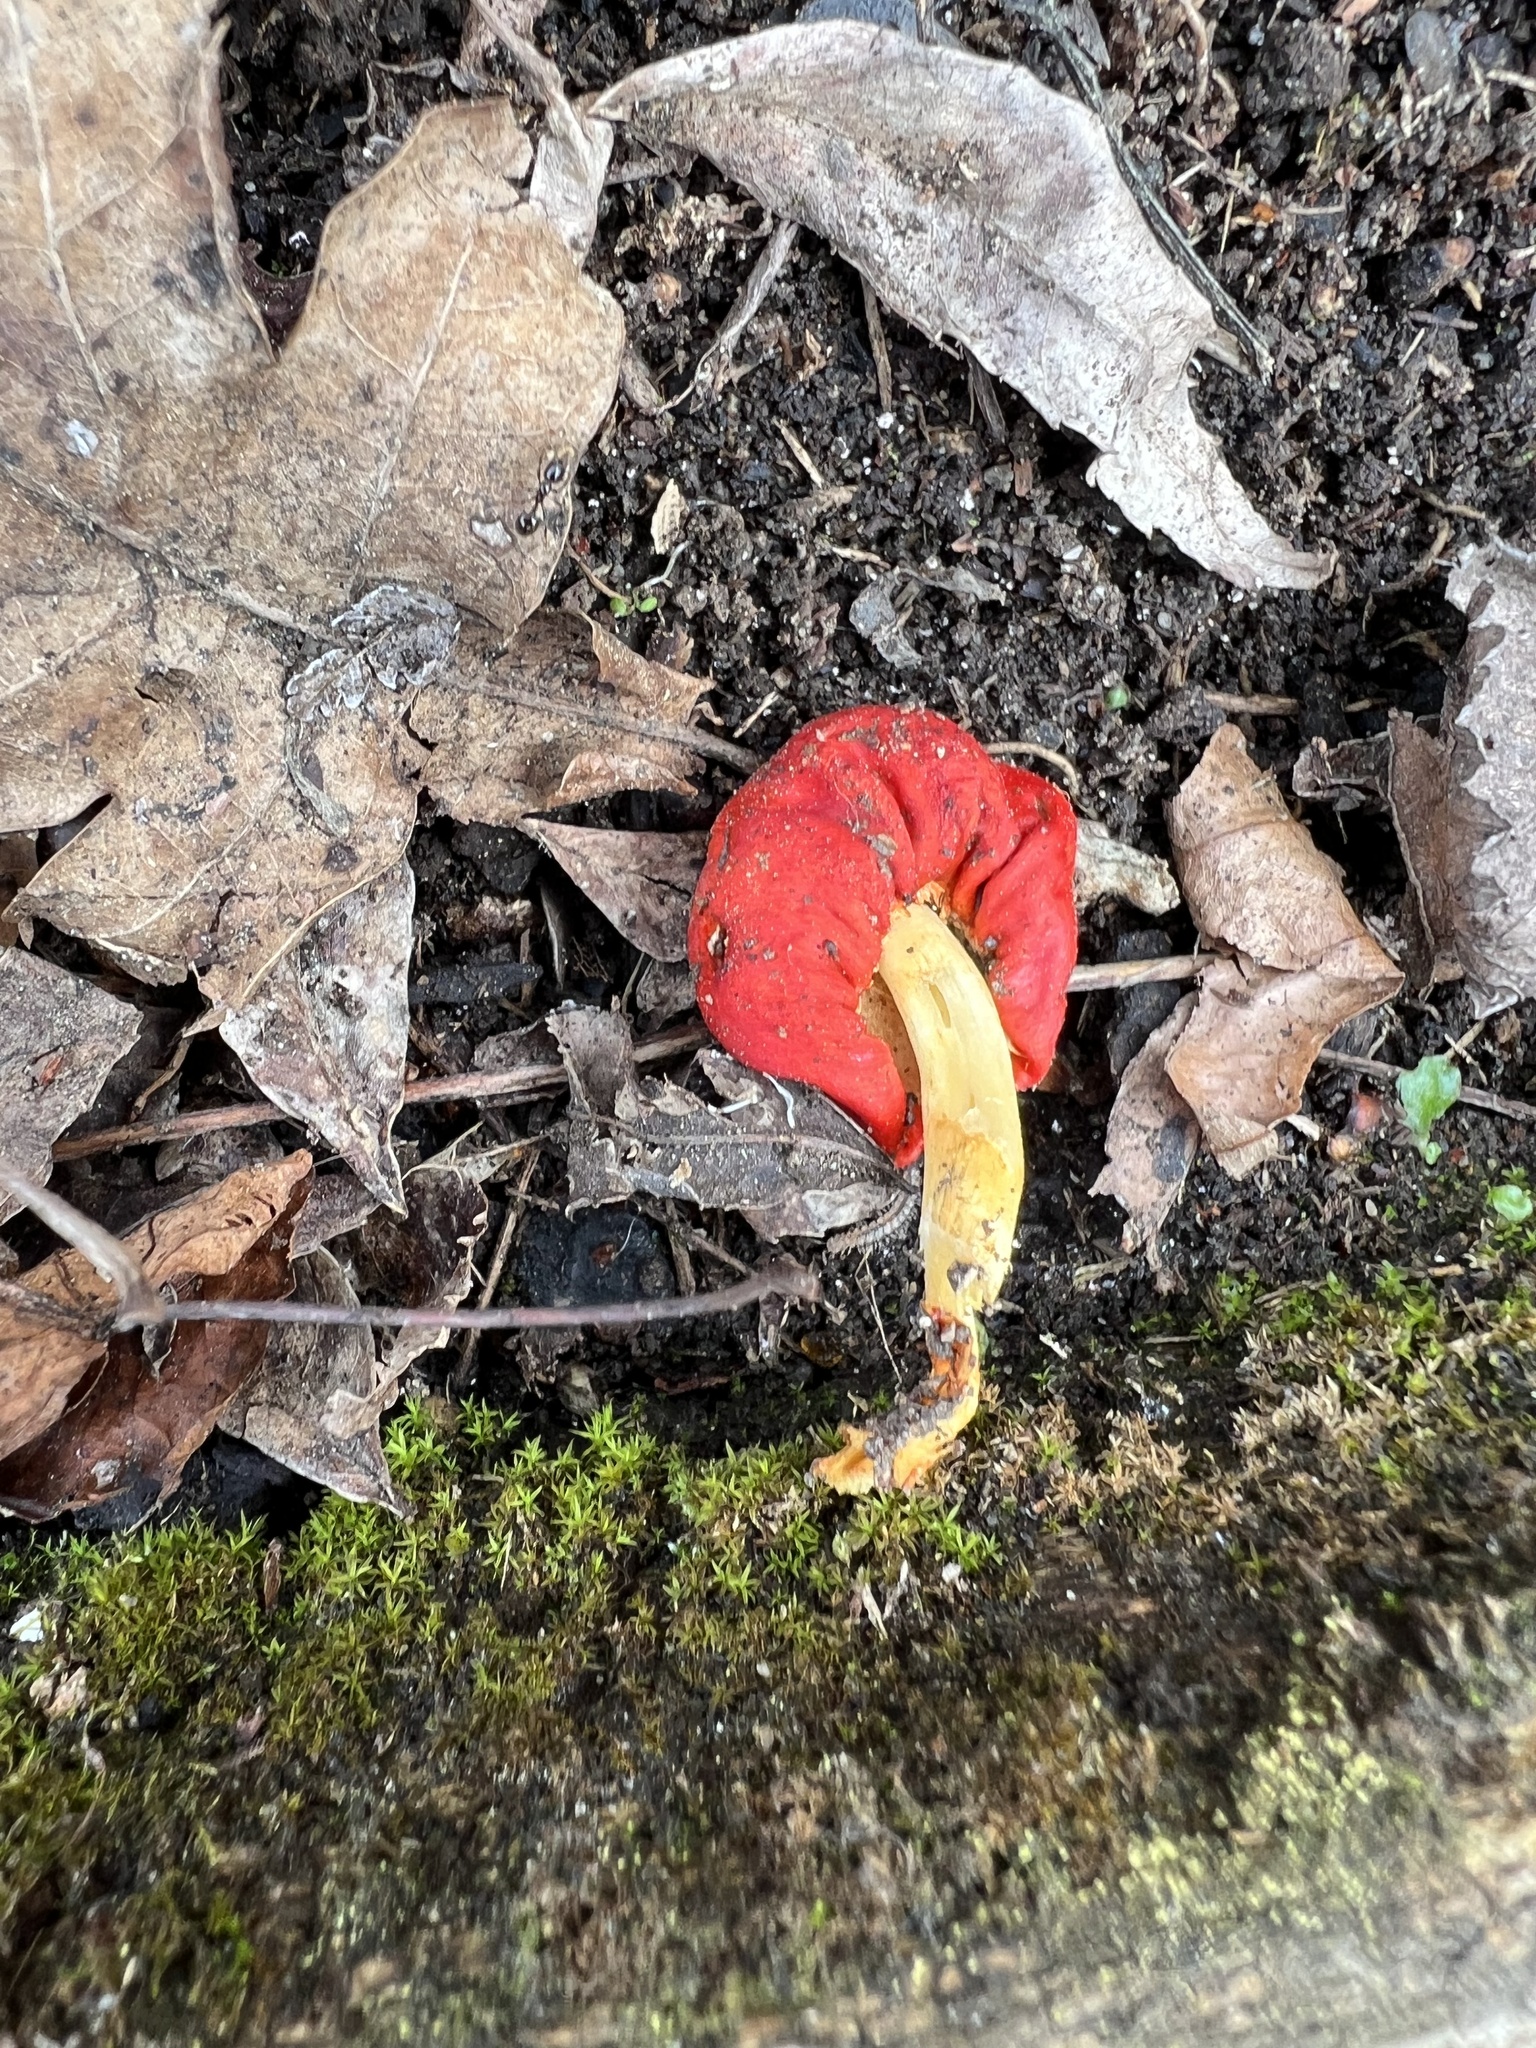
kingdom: Fungi
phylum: Basidiomycota
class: Agaricomycetes
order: Agaricales
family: Strophariaceae
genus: Leratiomyces
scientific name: Leratiomyces erythrocephalus
